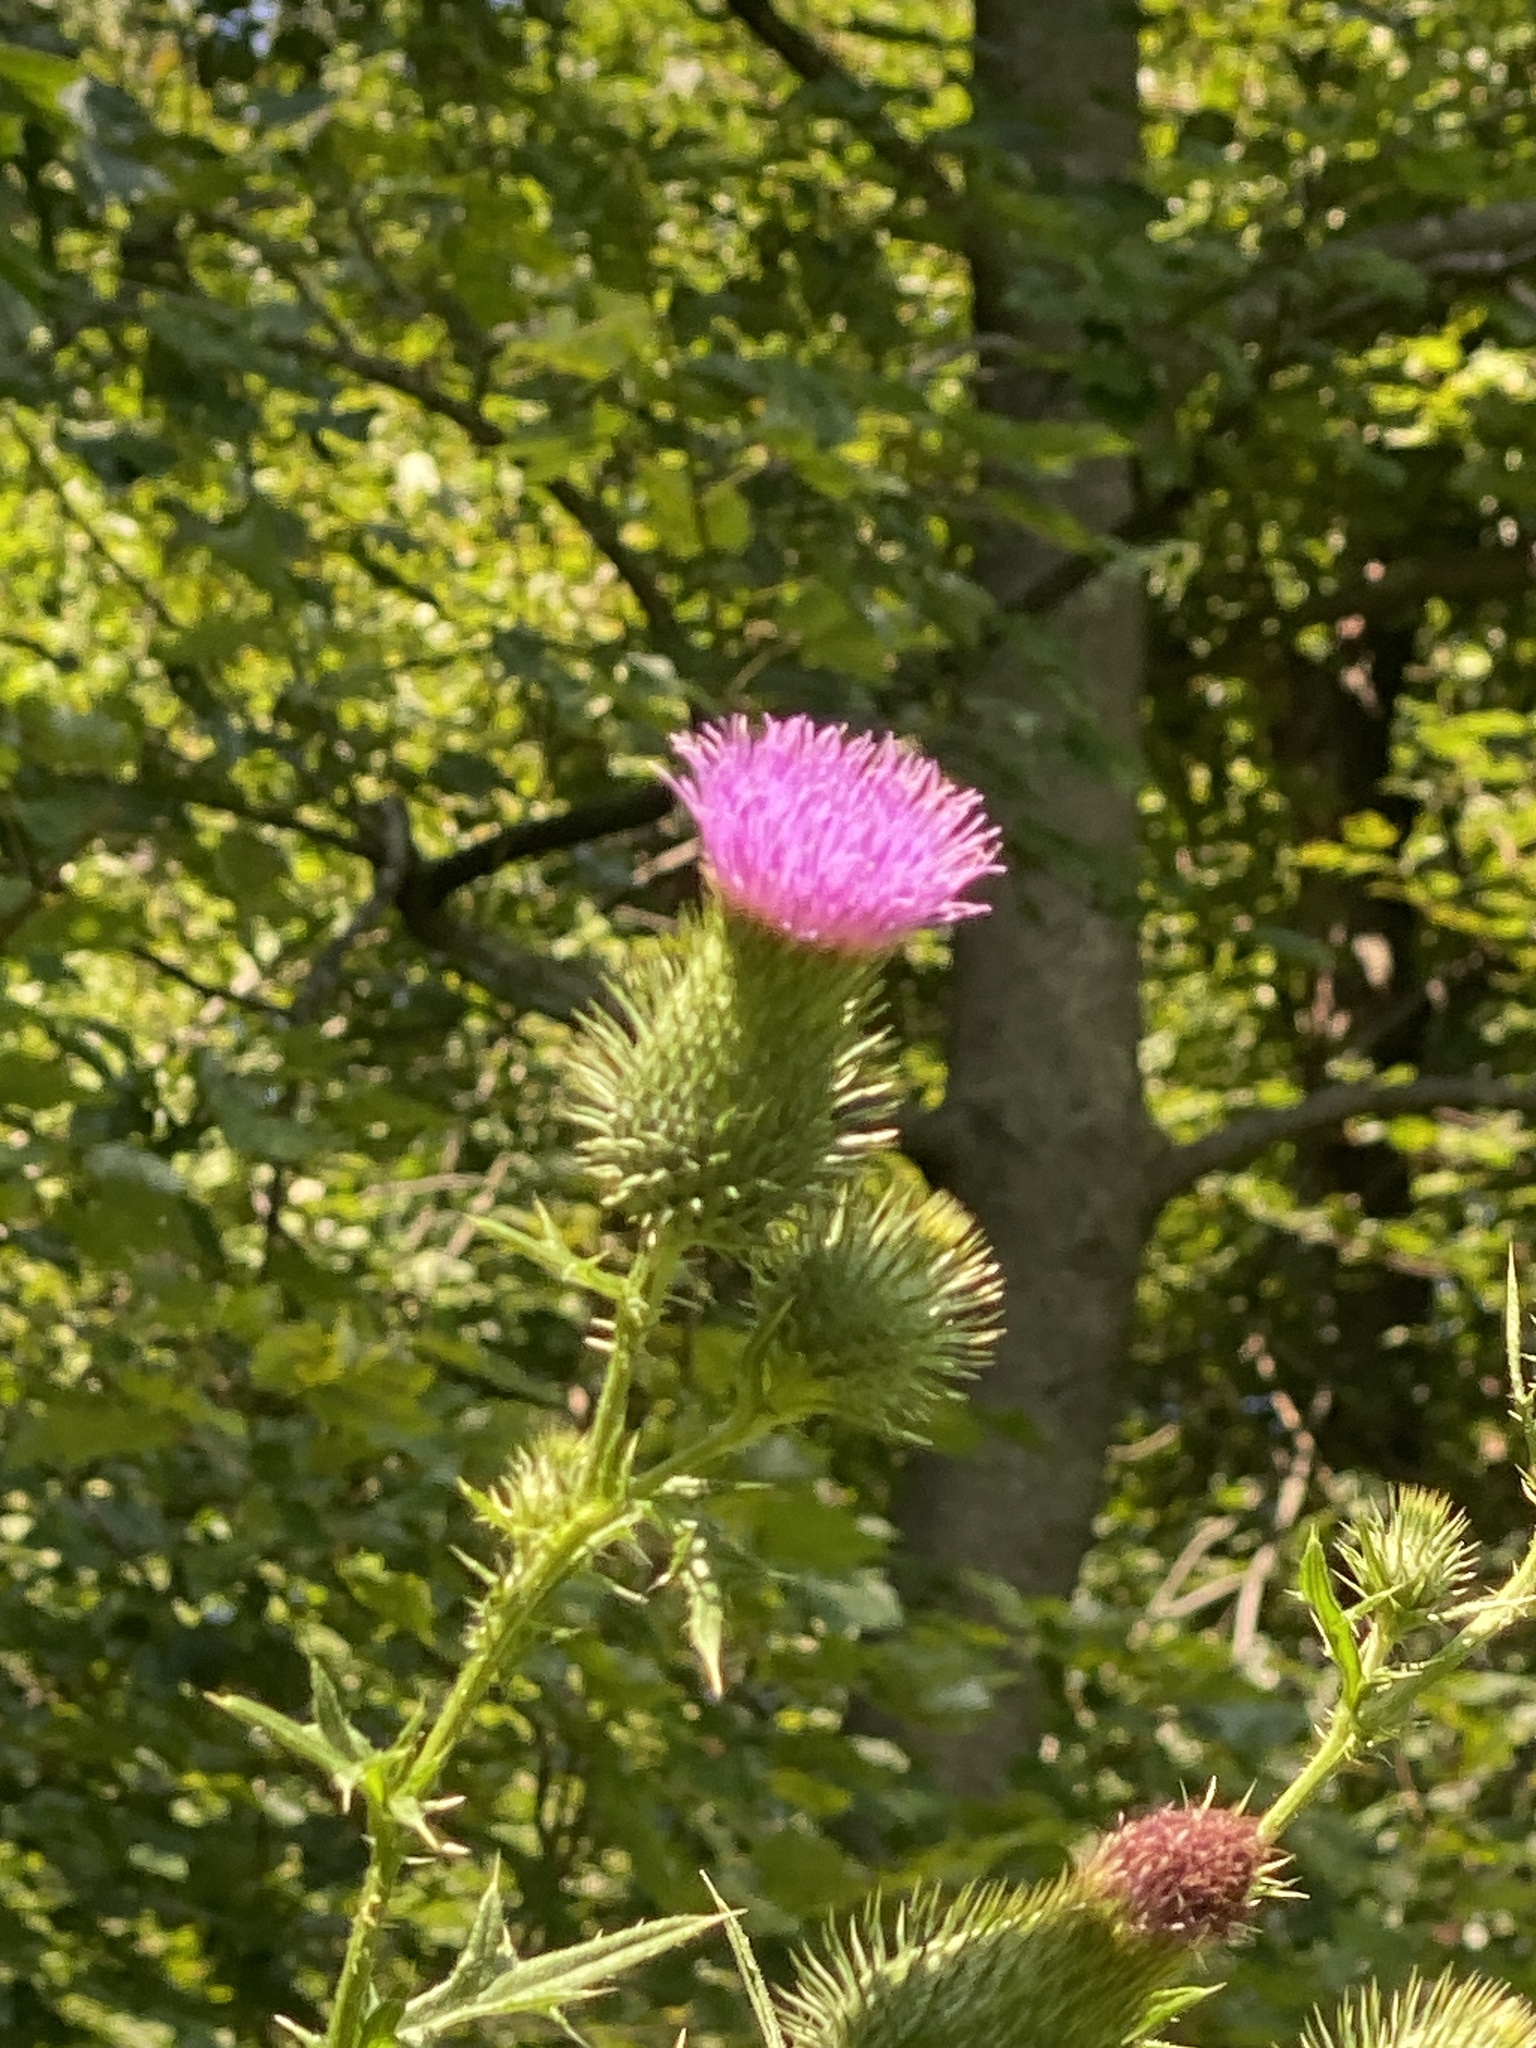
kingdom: Plantae
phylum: Tracheophyta
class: Magnoliopsida
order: Asterales
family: Asteraceae
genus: Cirsium
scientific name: Cirsium vulgare
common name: Bull thistle
